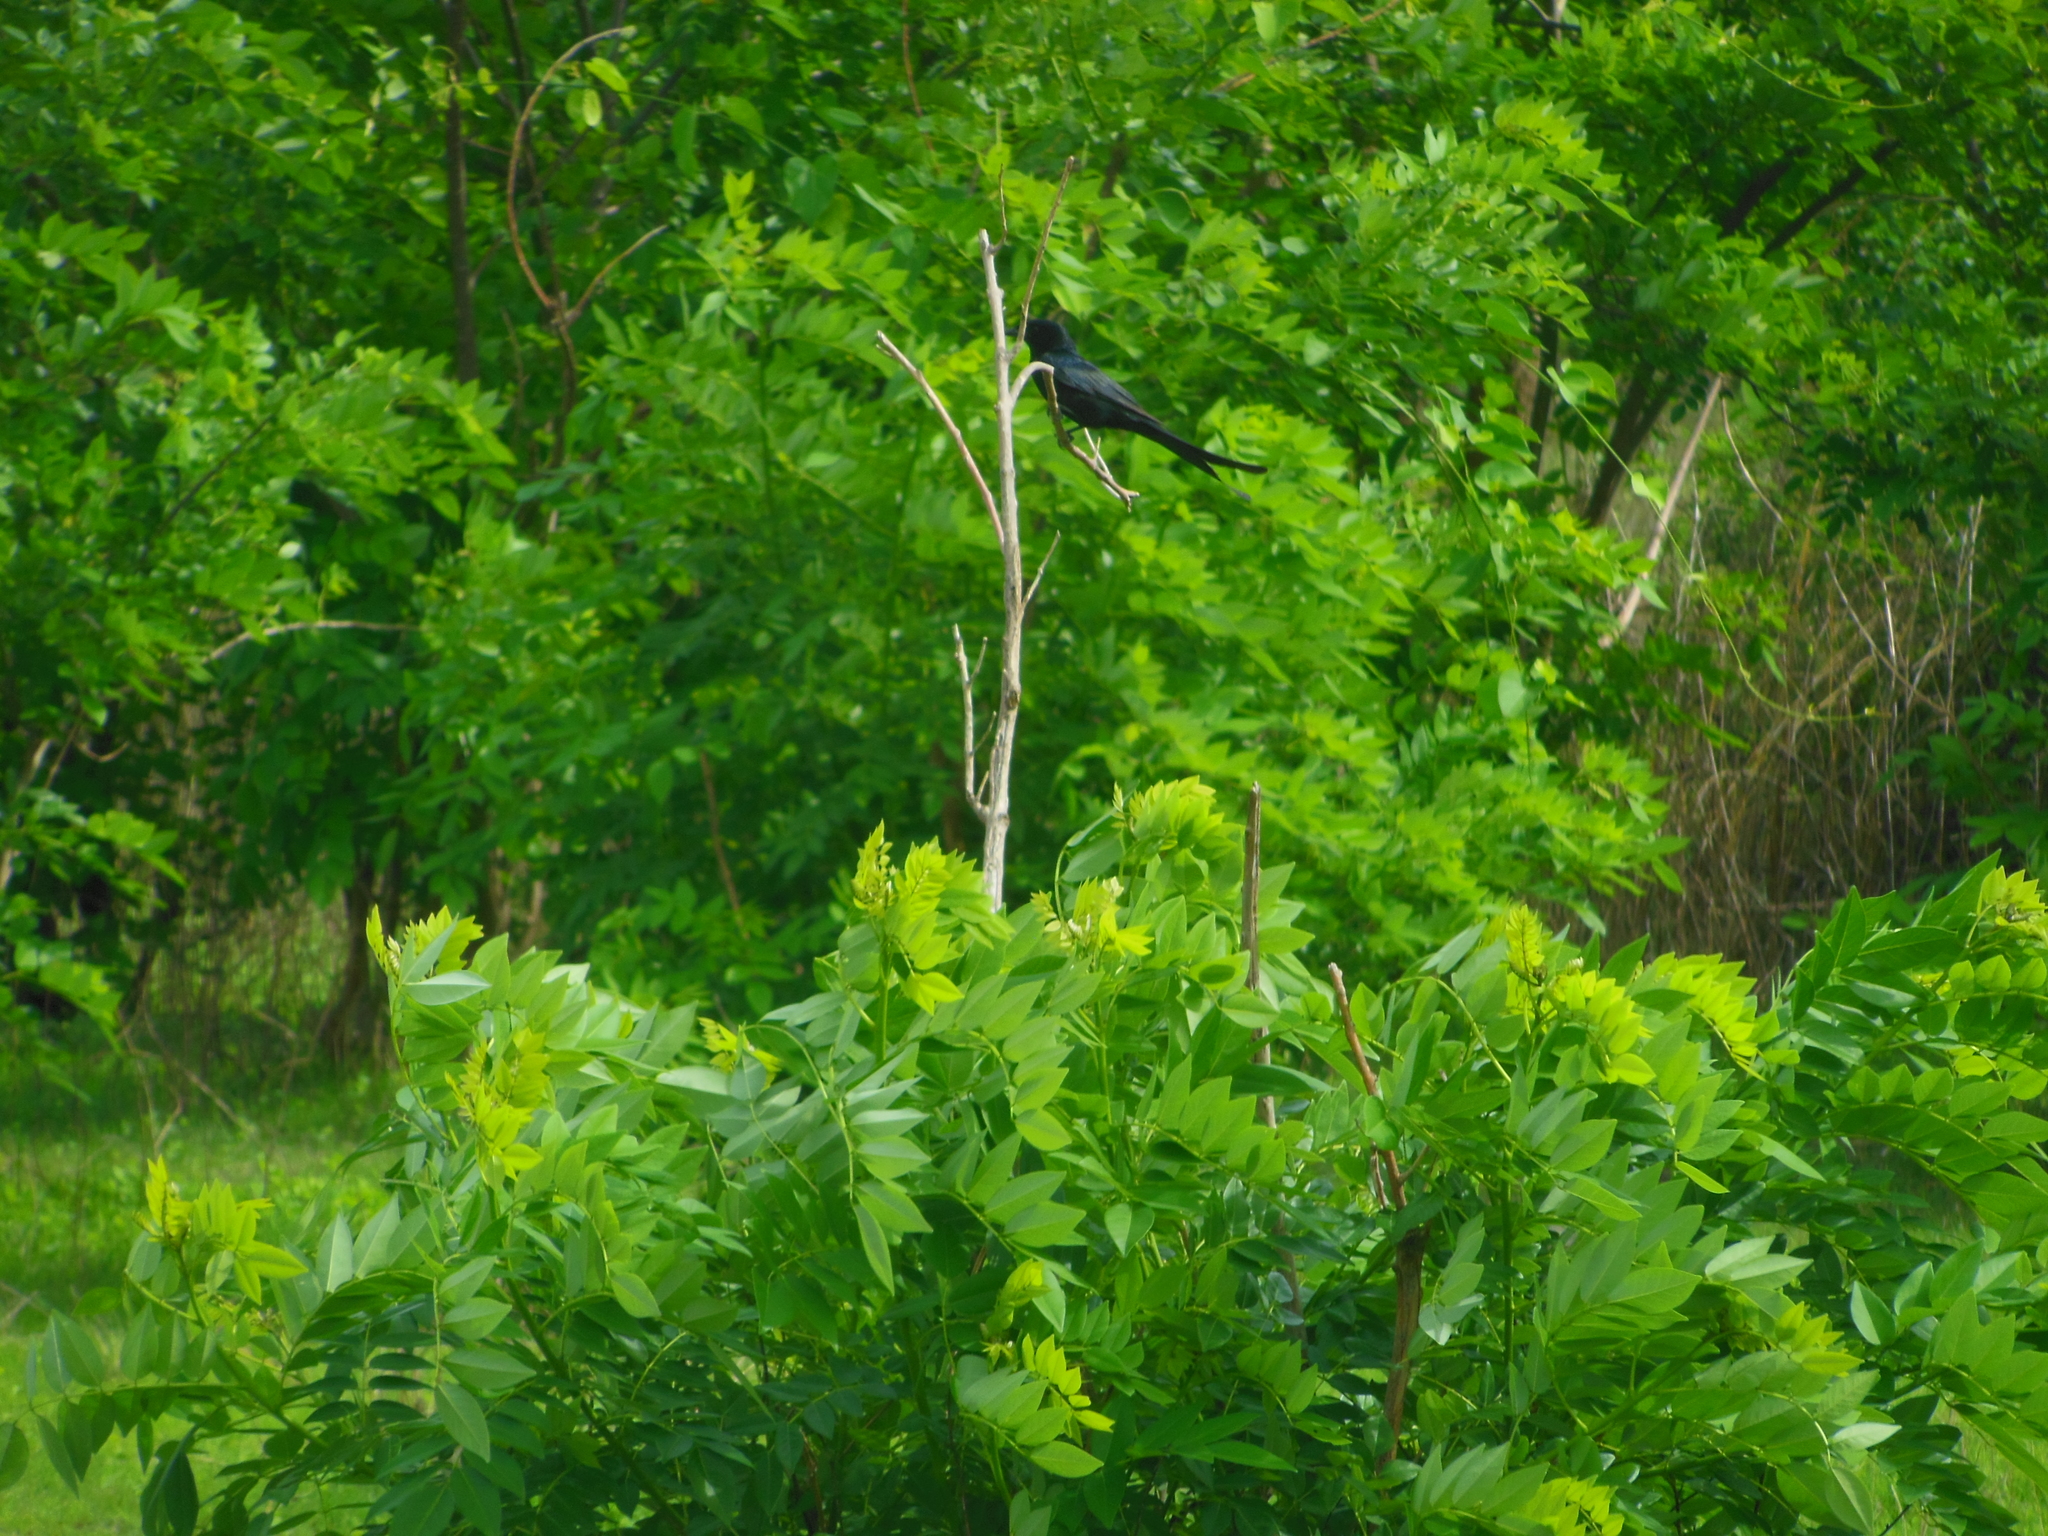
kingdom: Animalia
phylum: Chordata
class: Aves
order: Passeriformes
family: Dicruridae
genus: Dicrurus
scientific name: Dicrurus macrocercus
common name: Black drongo
